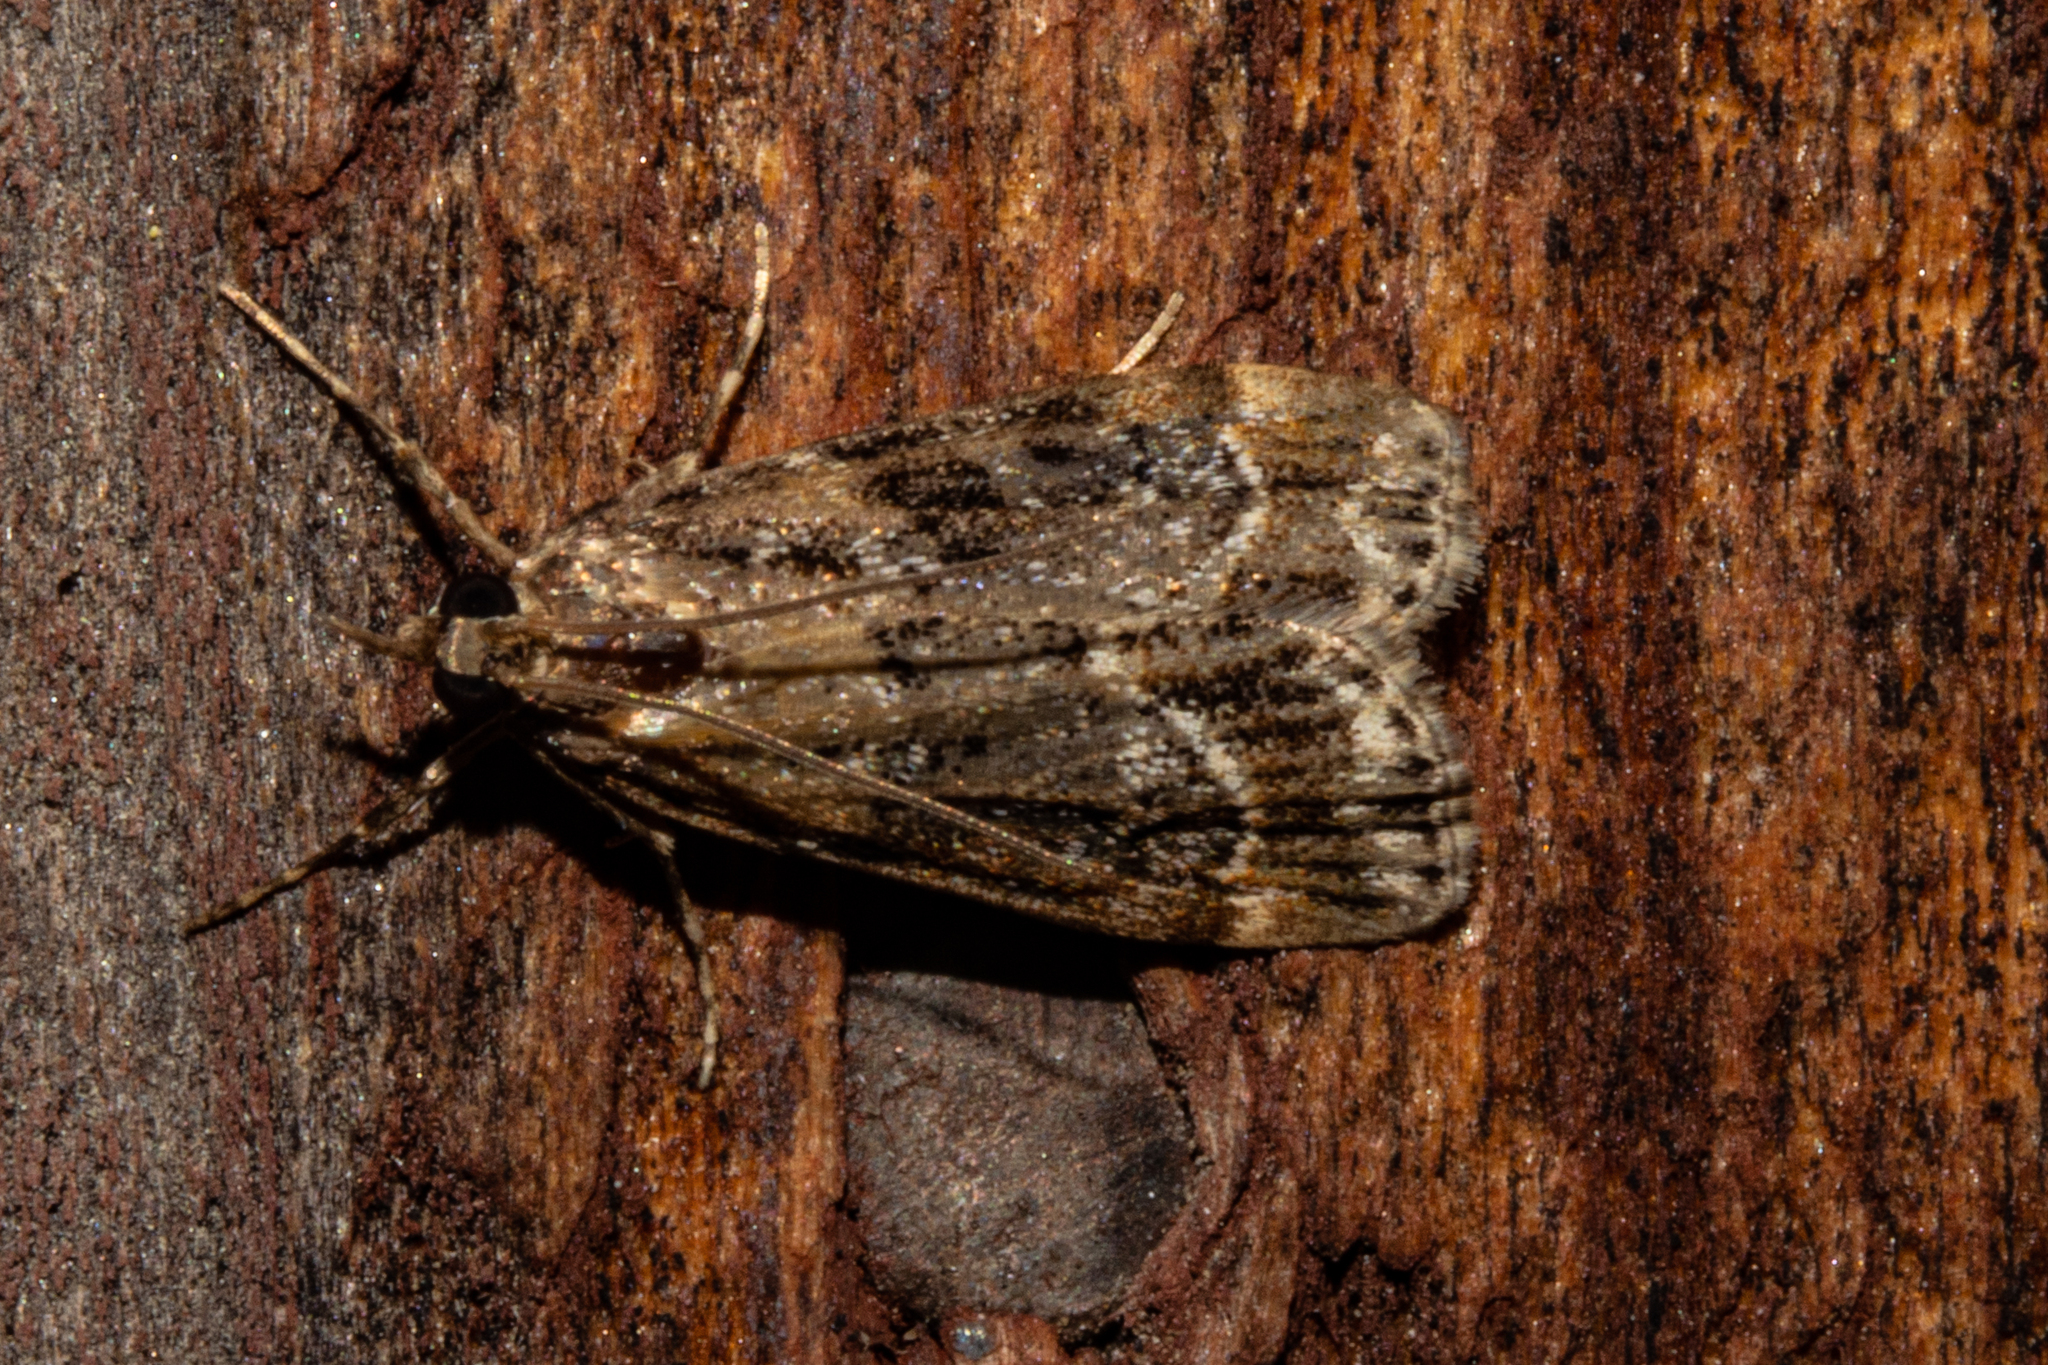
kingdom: Animalia
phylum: Arthropoda
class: Insecta
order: Lepidoptera
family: Crambidae
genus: Eudonia
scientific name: Eudonia legnota
